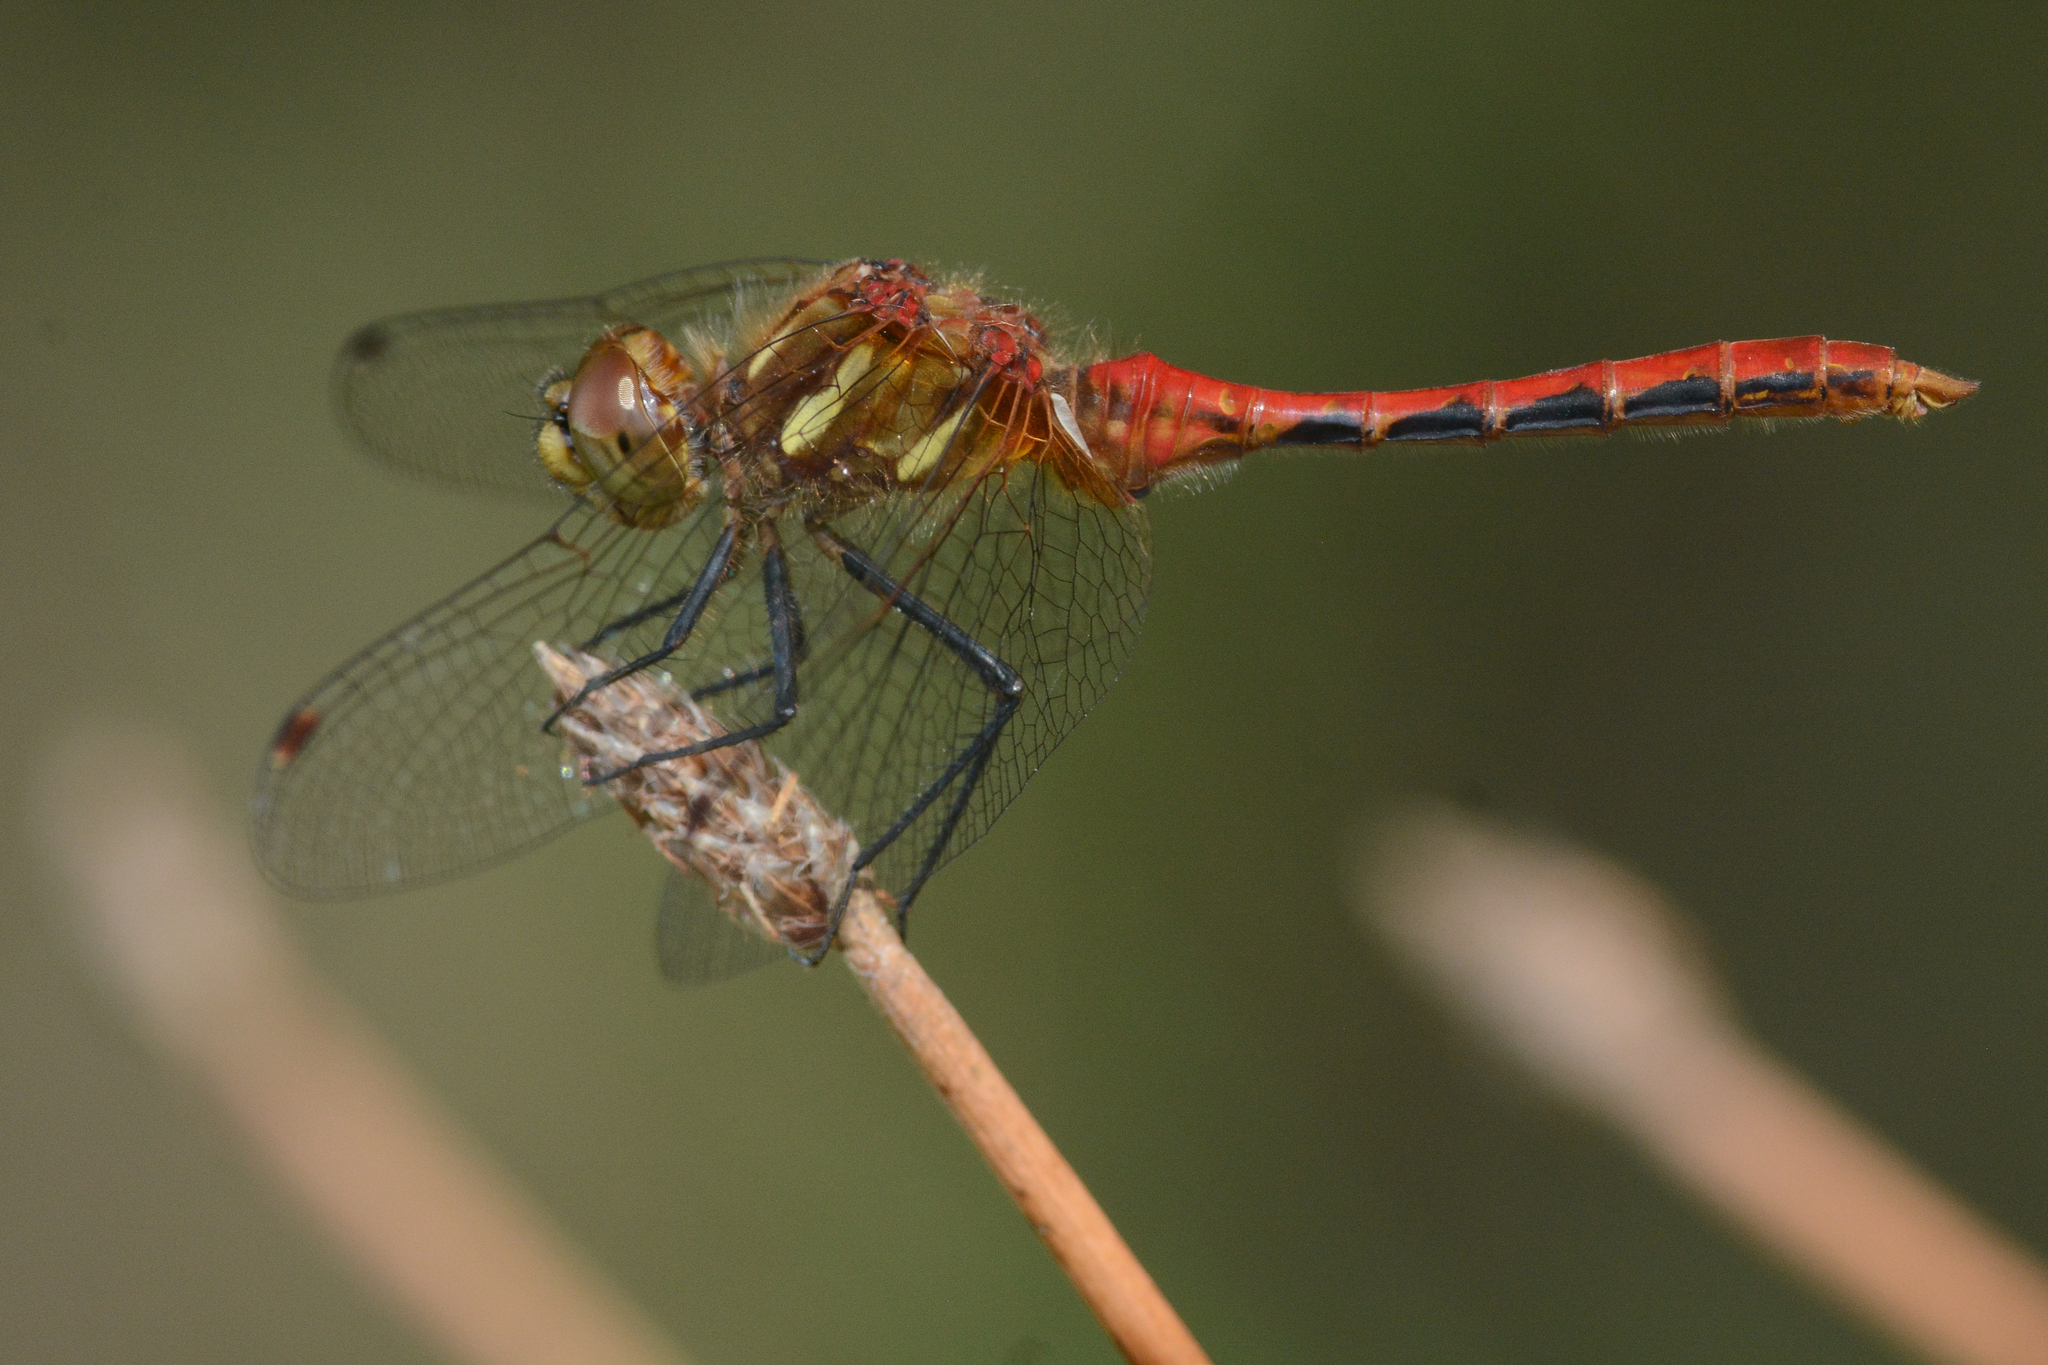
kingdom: Animalia
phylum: Arthropoda
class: Insecta
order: Odonata
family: Libellulidae
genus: Sympetrum
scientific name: Sympetrum pallipes
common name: Striped meadowhawk
